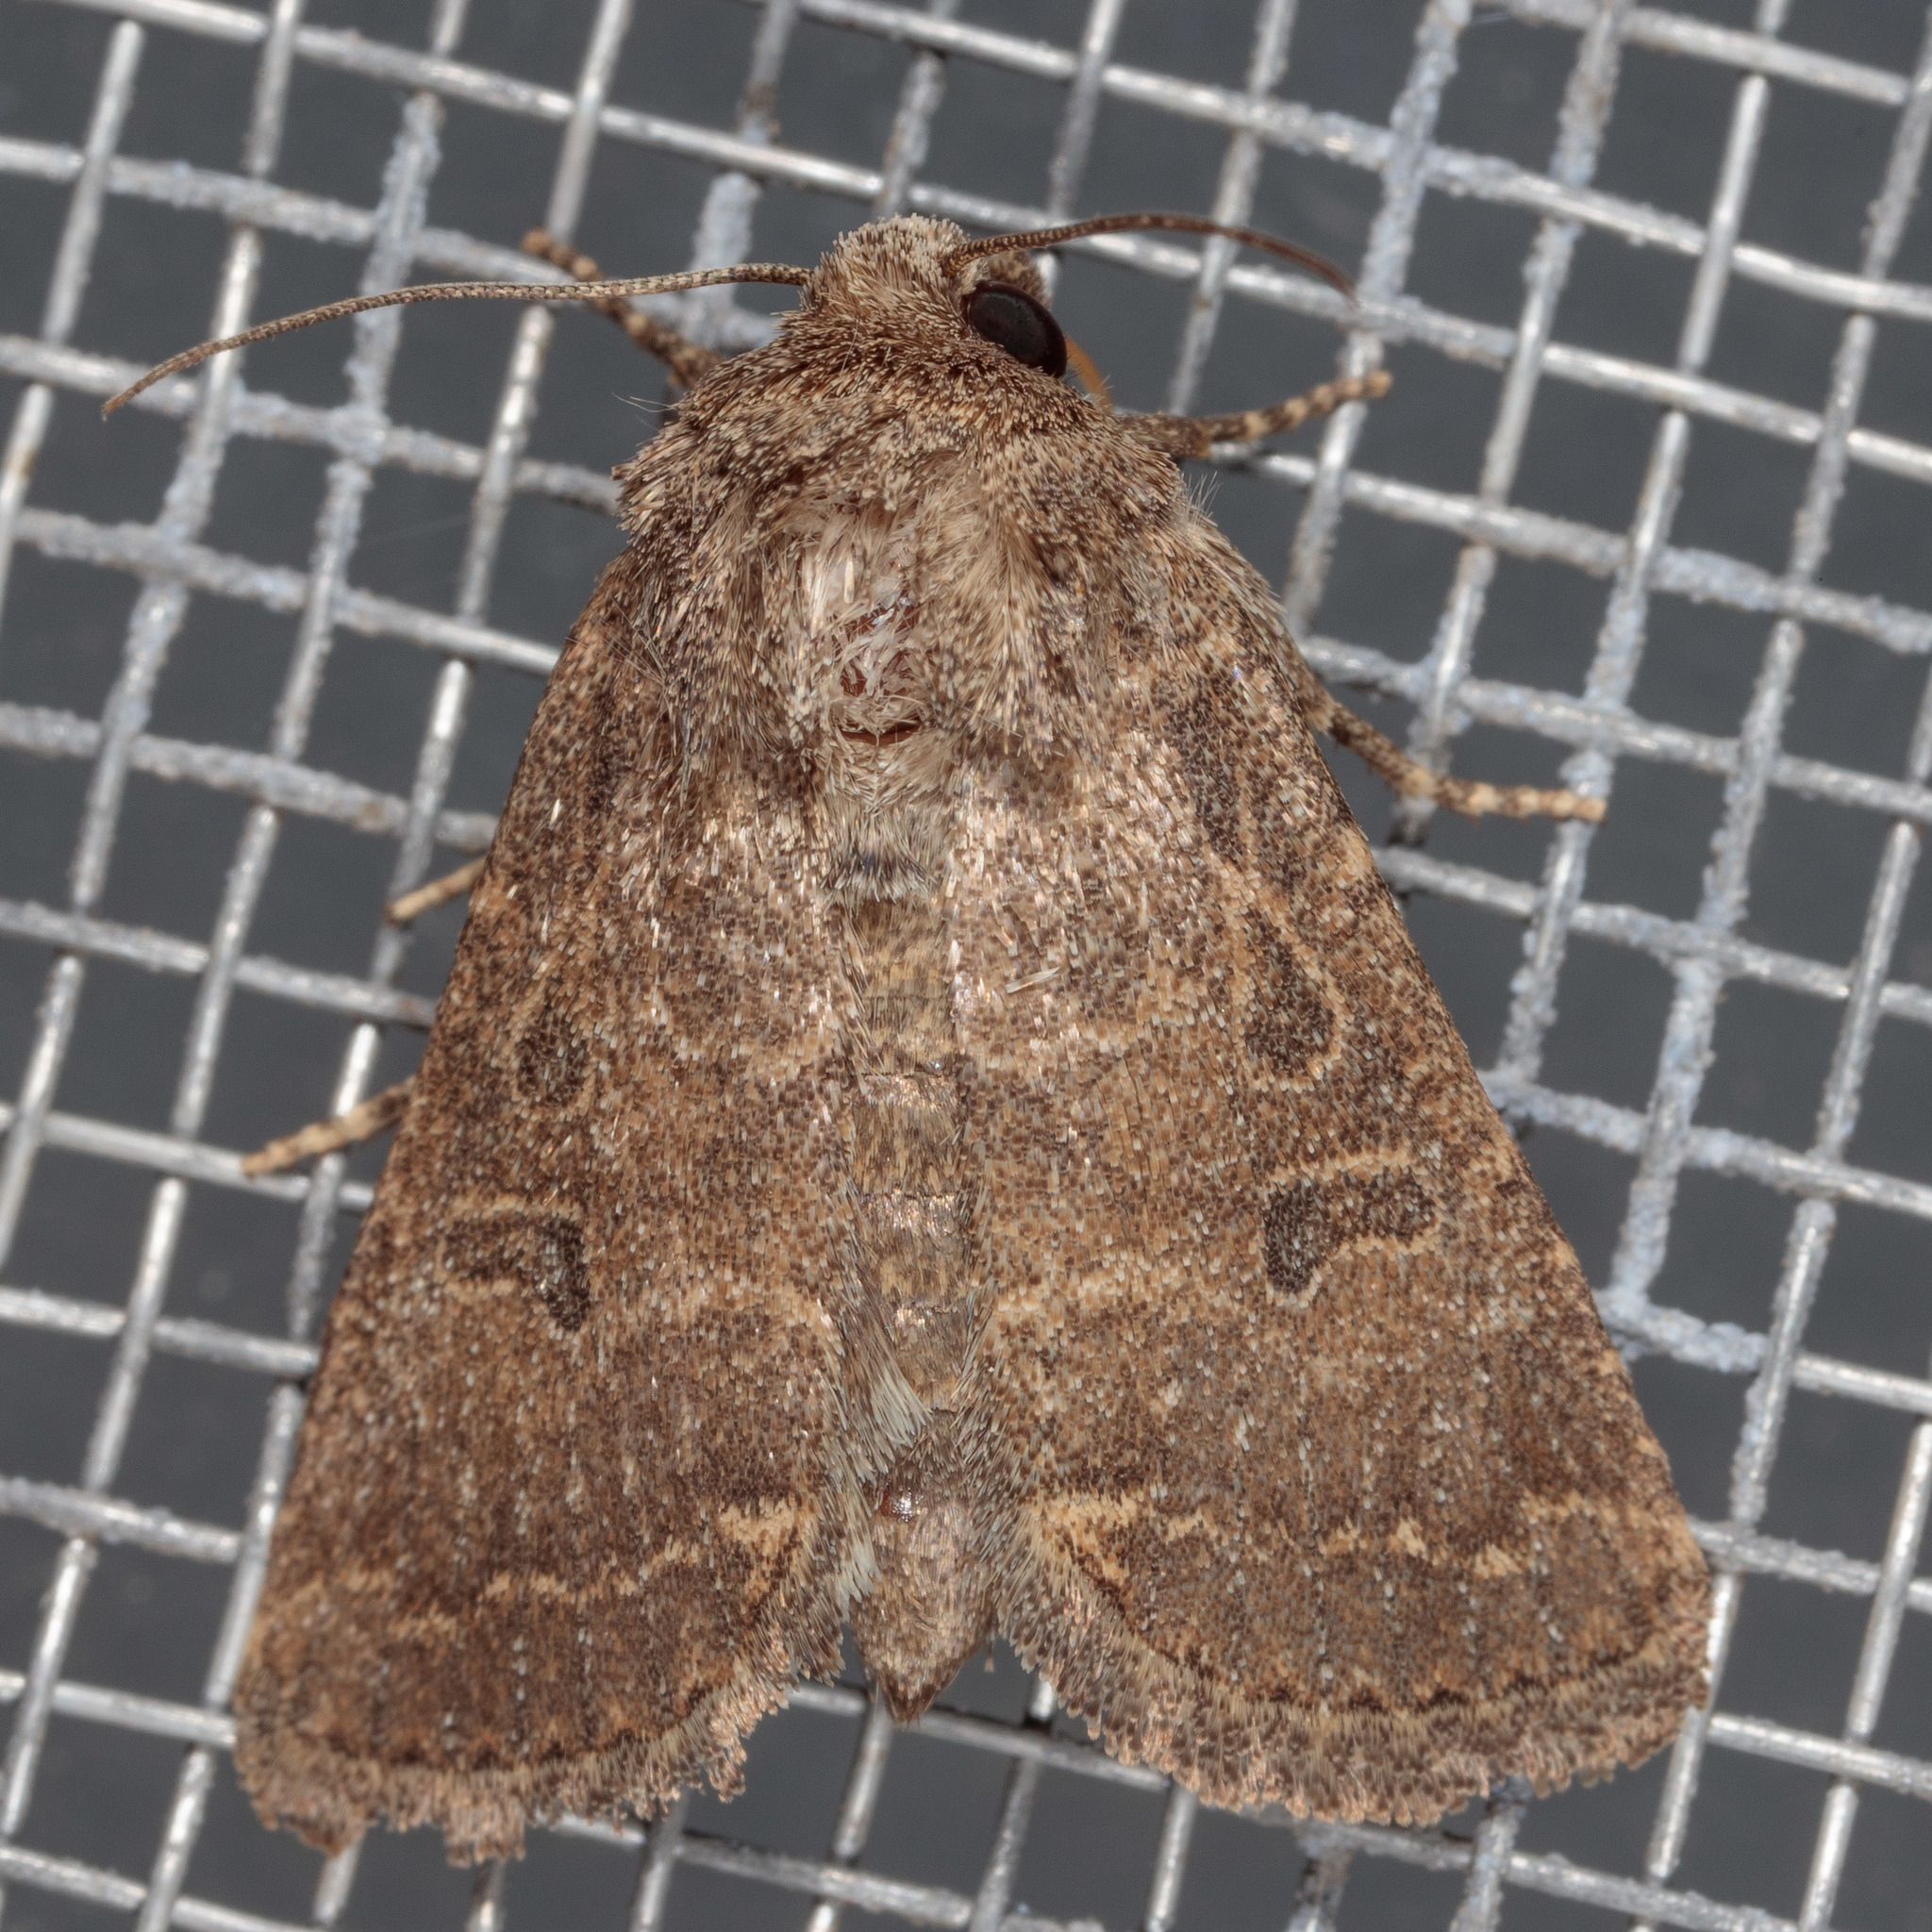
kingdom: Animalia
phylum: Arthropoda
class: Insecta
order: Lepidoptera
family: Noctuidae
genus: Trichopolia
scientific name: Trichopolia
